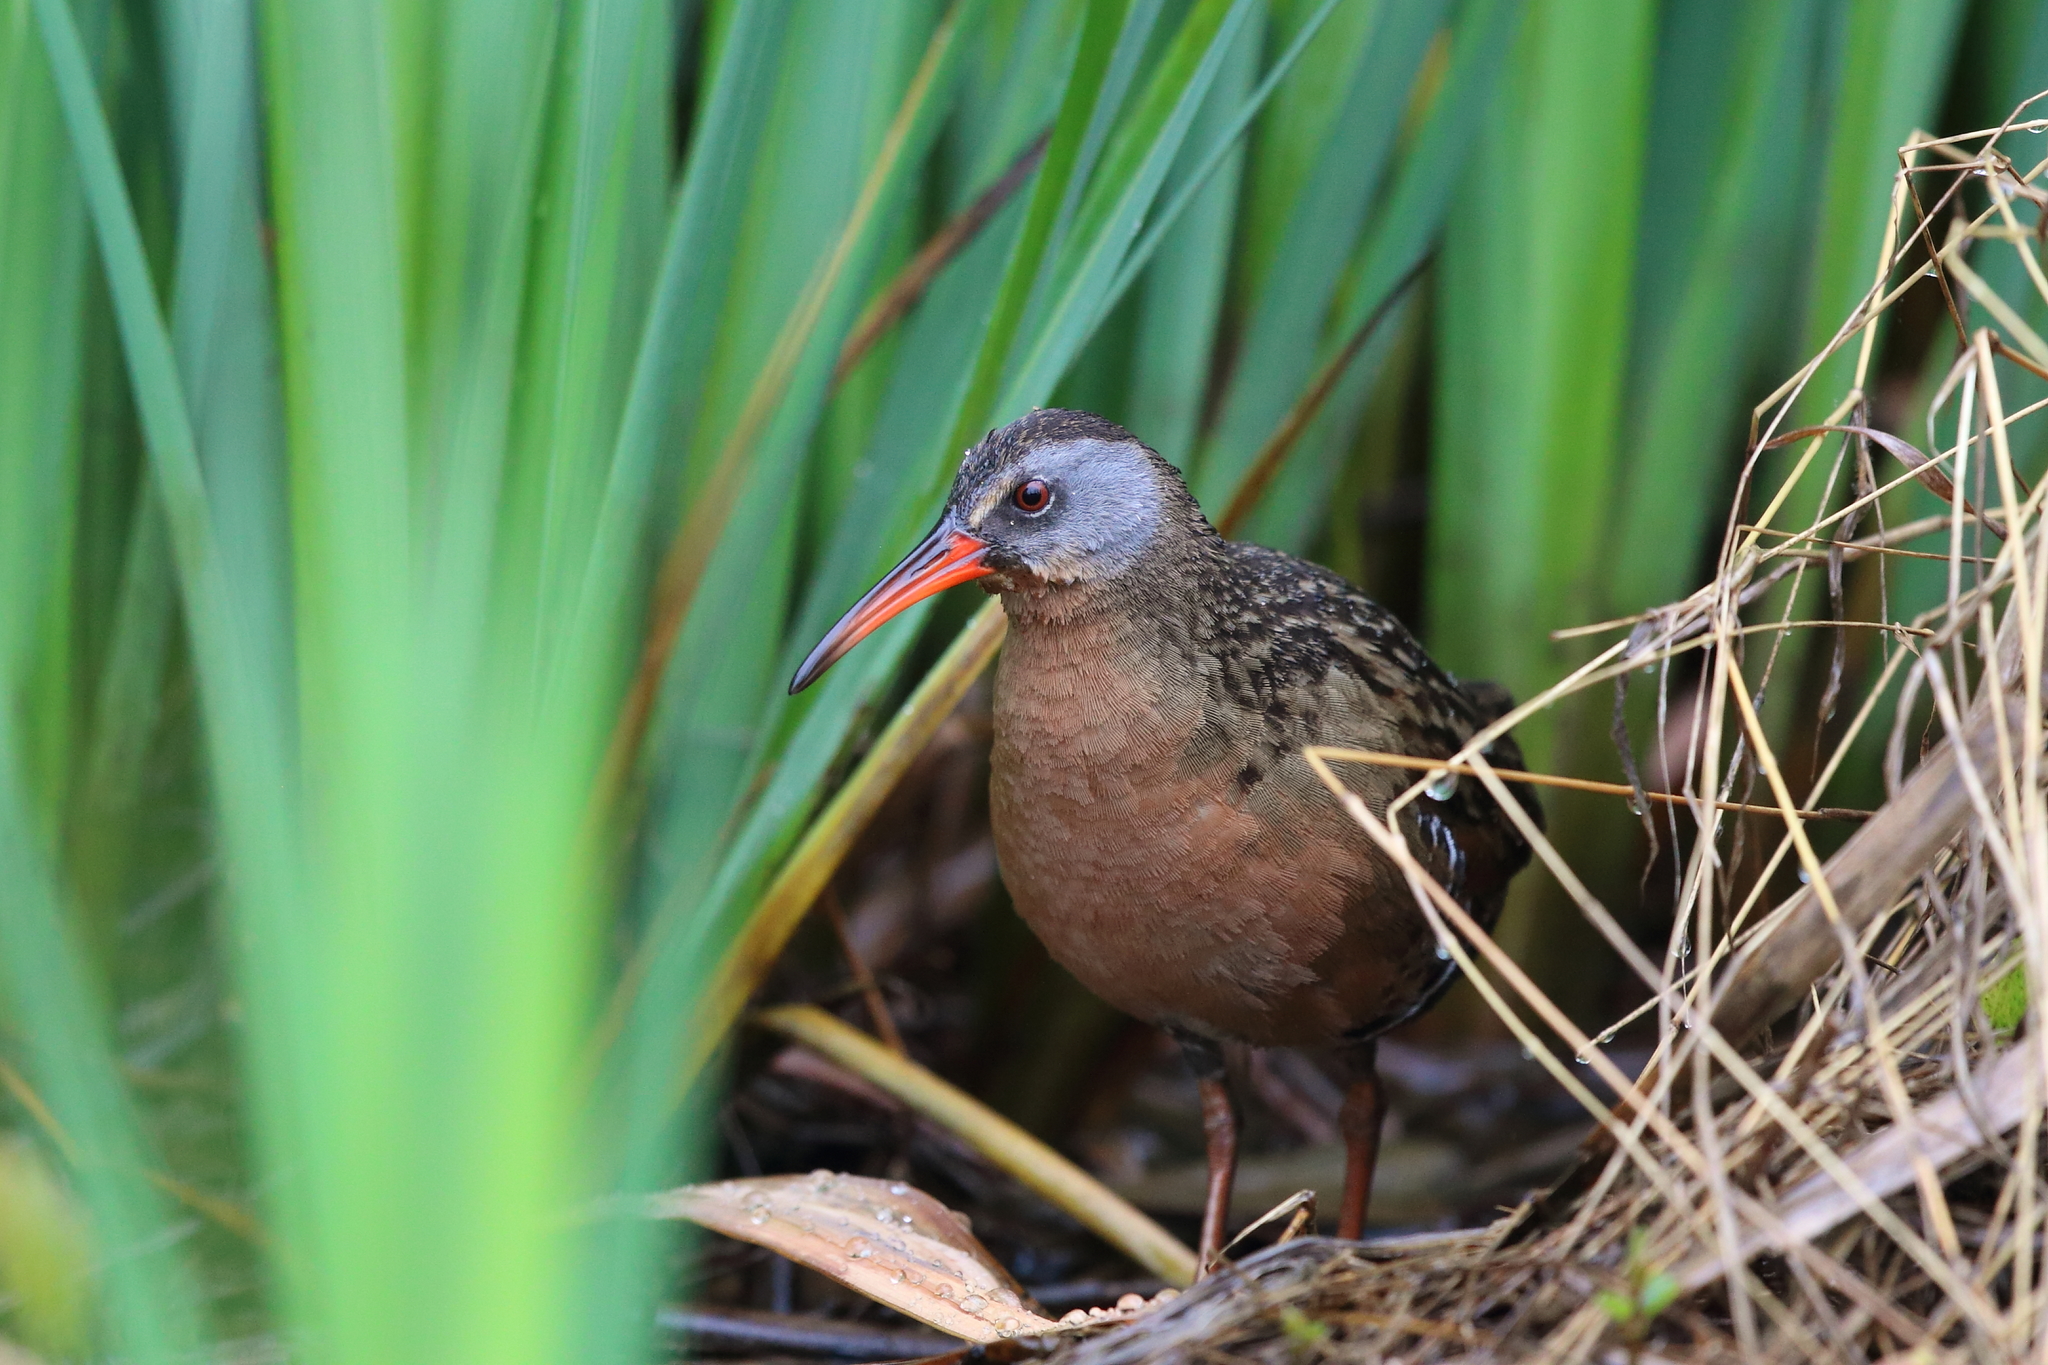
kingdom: Animalia
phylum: Chordata
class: Aves
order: Gruiformes
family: Rallidae
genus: Rallus
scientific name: Rallus limicola
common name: Virginia rail
